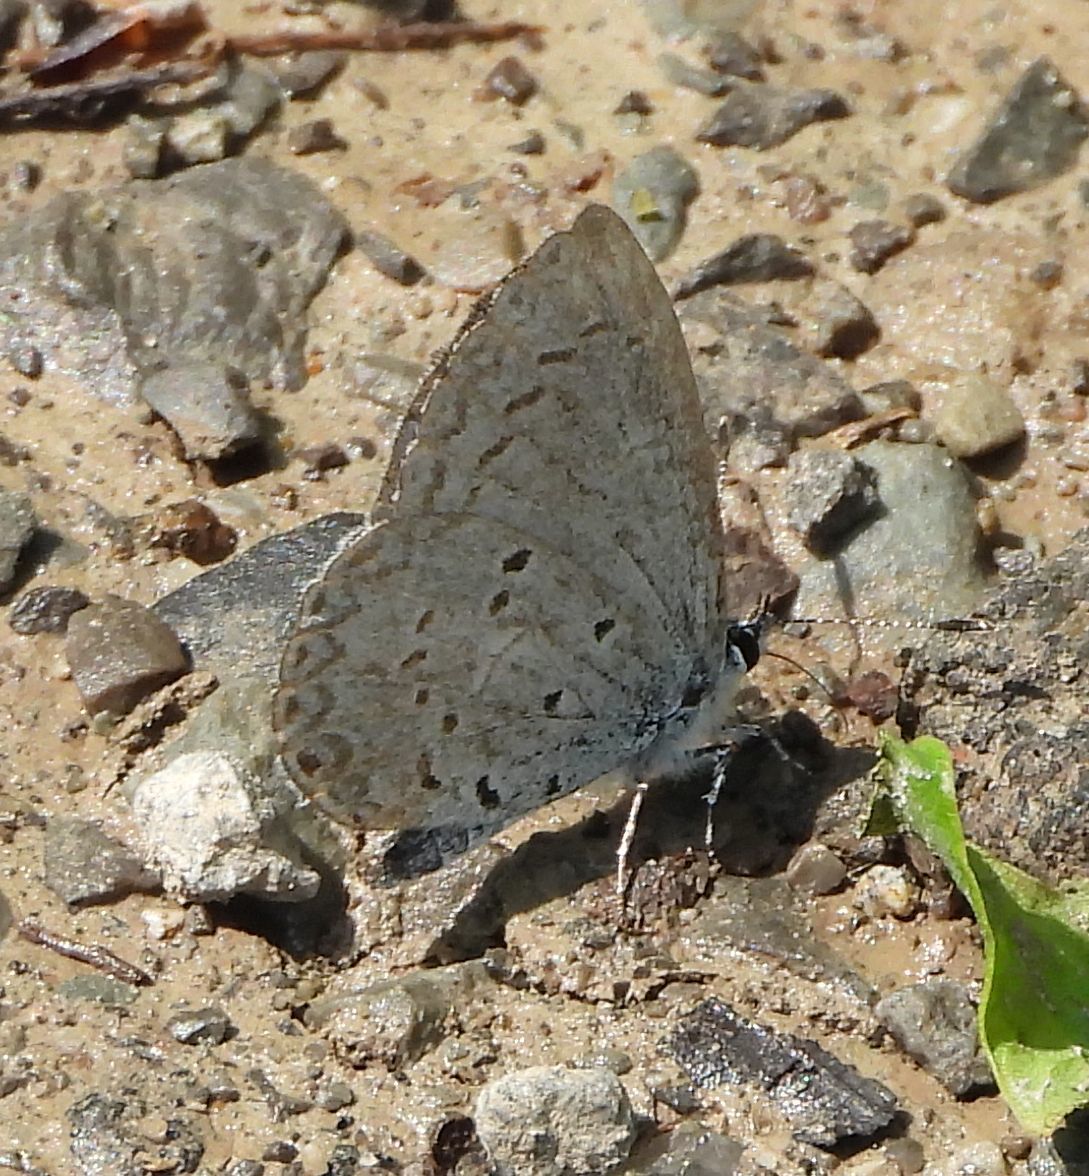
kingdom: Animalia
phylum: Arthropoda
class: Insecta
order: Lepidoptera
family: Lycaenidae
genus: Celastrina
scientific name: Celastrina lucia
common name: Lucia azure
